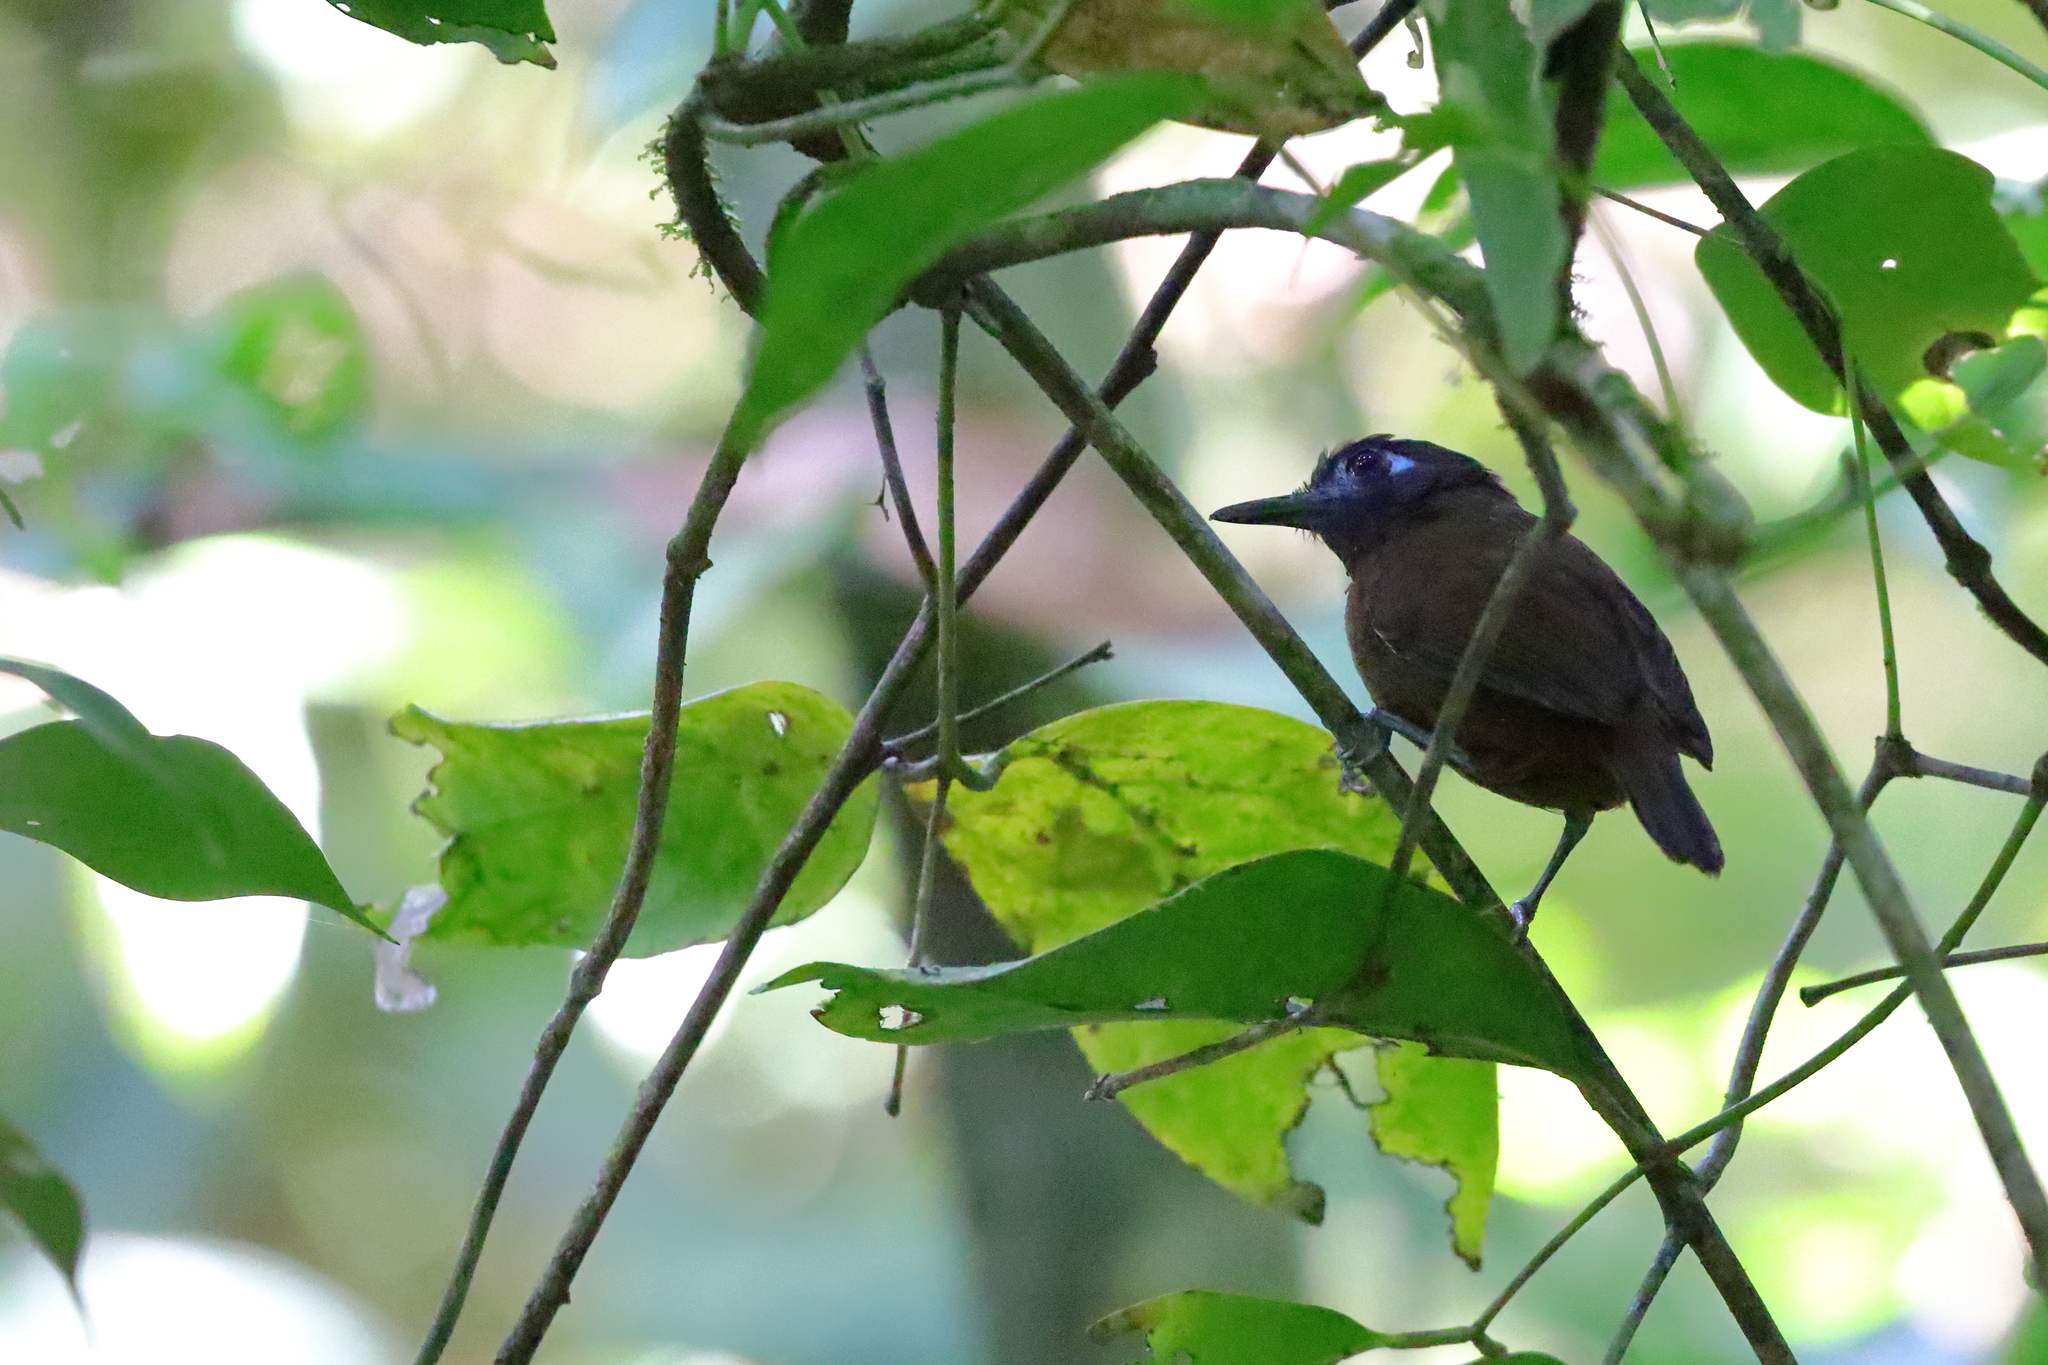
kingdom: Animalia
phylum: Chordata
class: Aves
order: Passeriformes
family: Thamnophilidae
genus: Myrmeciza
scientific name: Myrmeciza exsul
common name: Chestnut-backed antbird
